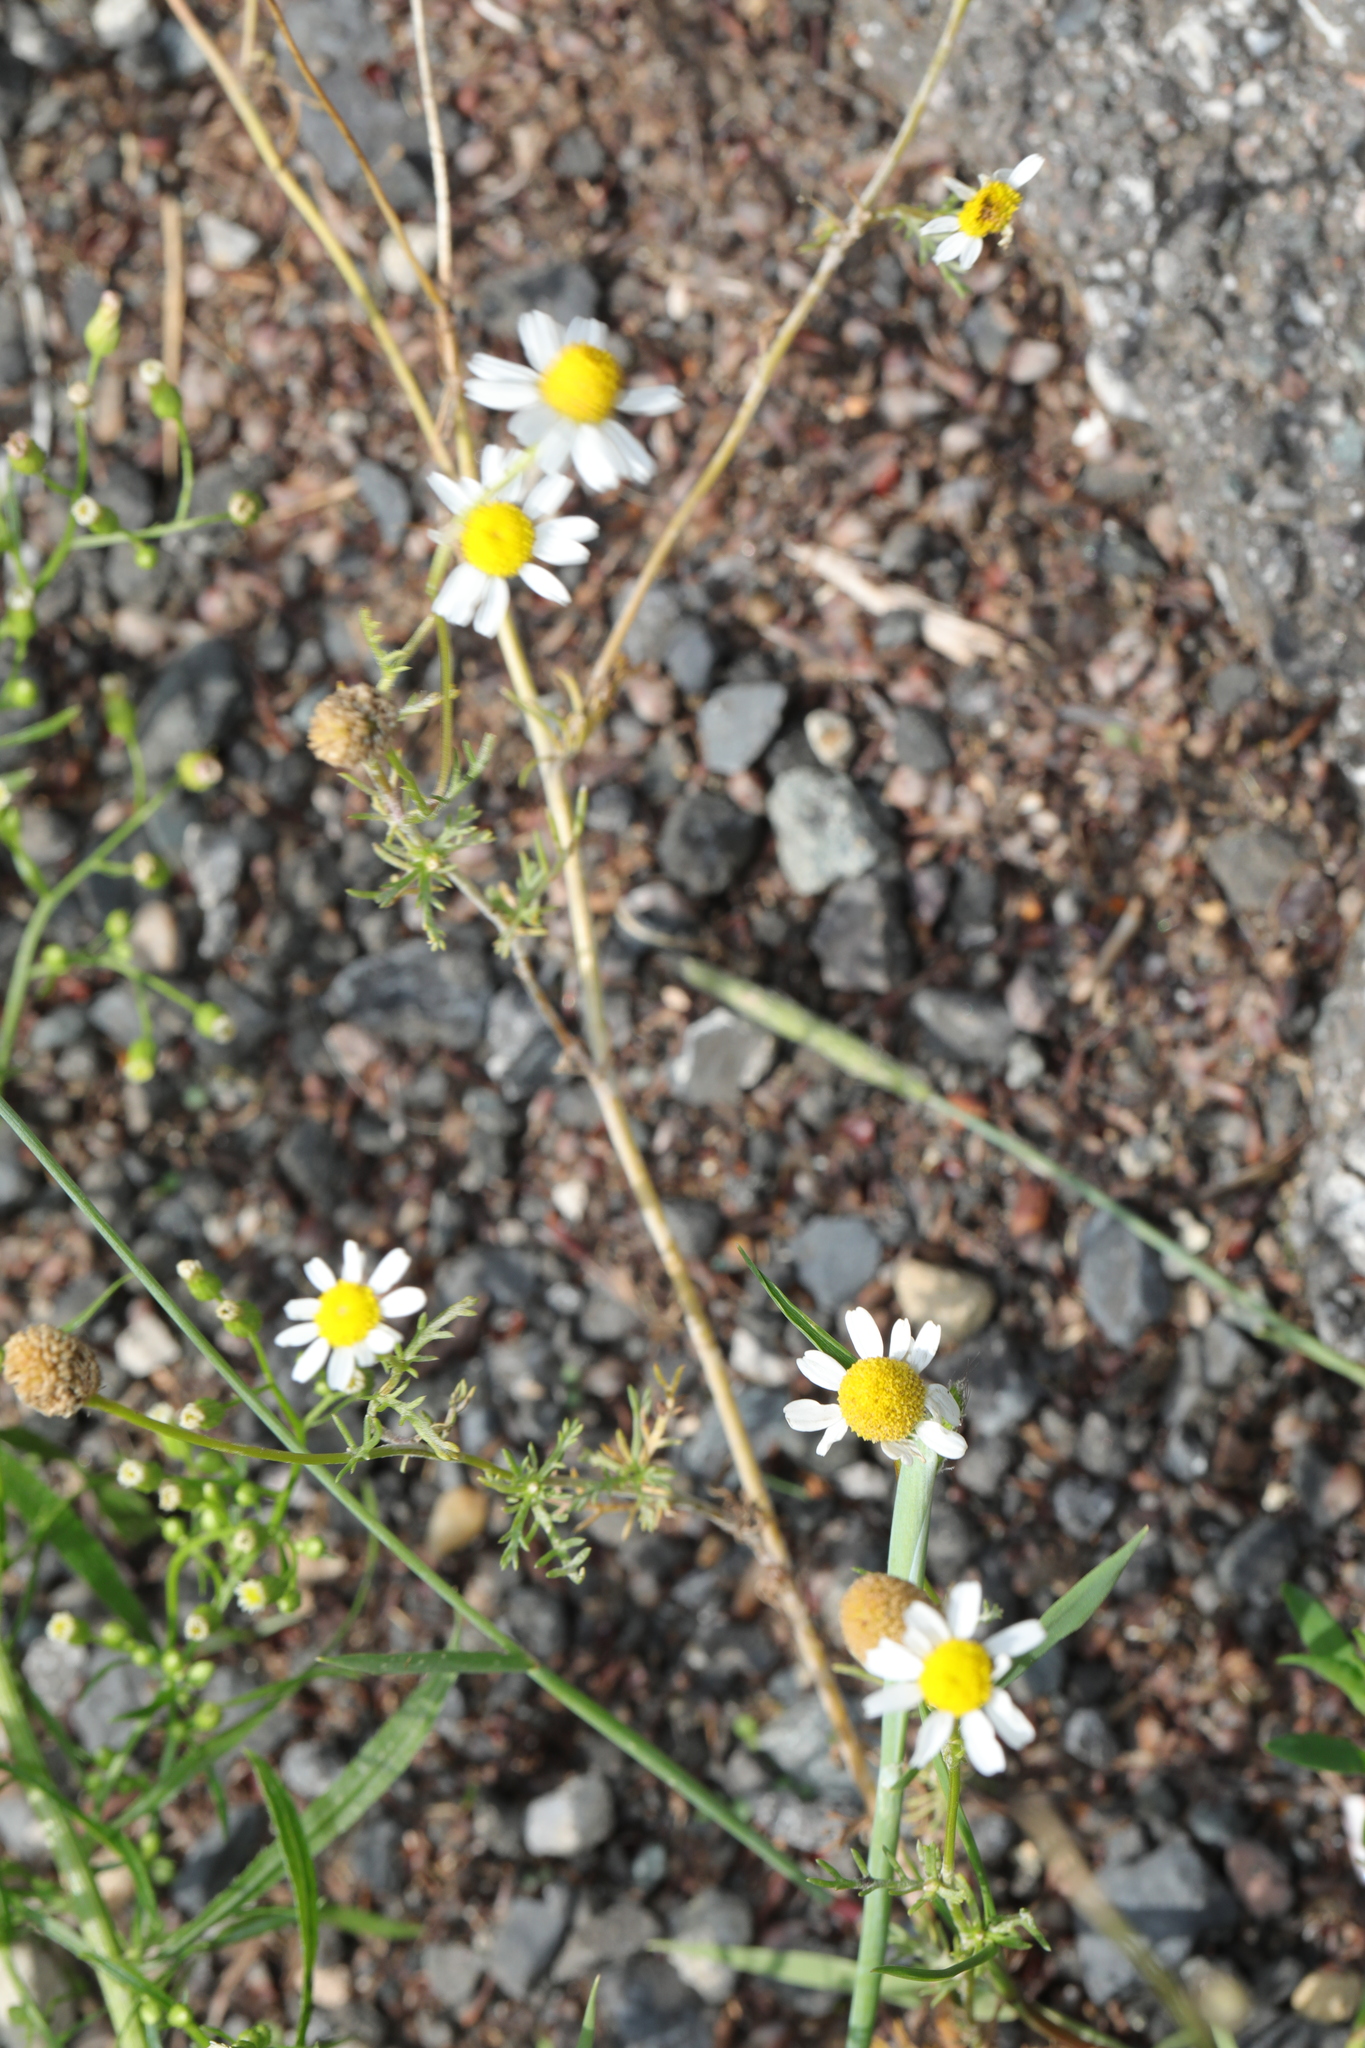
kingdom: Plantae
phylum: Tracheophyta
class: Magnoliopsida
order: Asterales
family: Asteraceae
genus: Matricaria
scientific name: Matricaria chamomilla
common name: Scented mayweed
